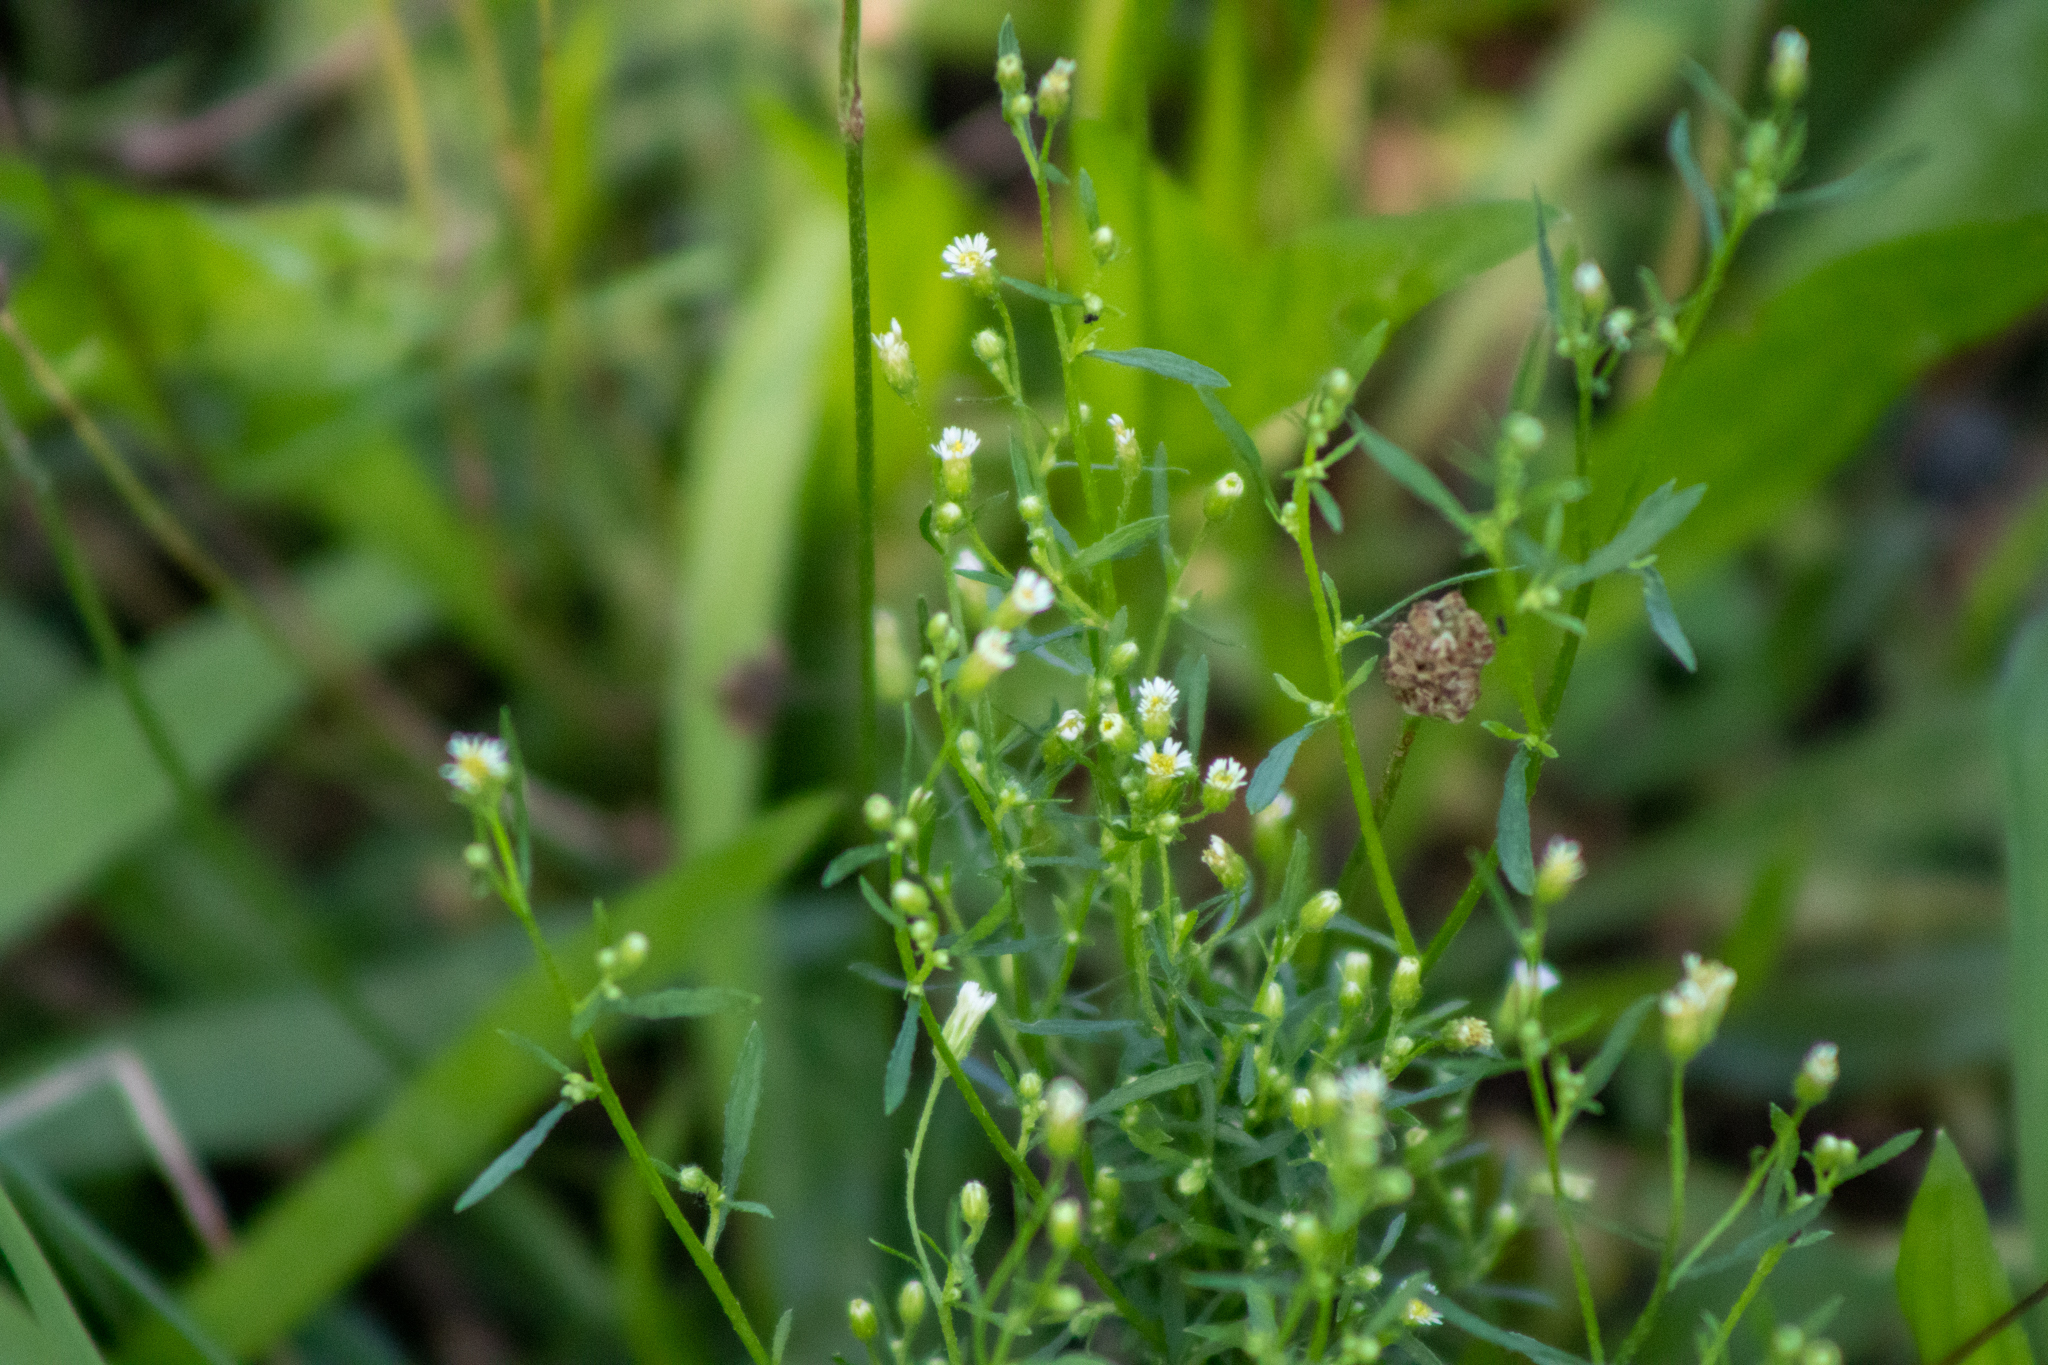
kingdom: Plantae
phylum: Tracheophyta
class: Magnoliopsida
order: Asterales
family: Asteraceae
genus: Erigeron
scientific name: Erigeron canadensis
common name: Canadian fleabane
